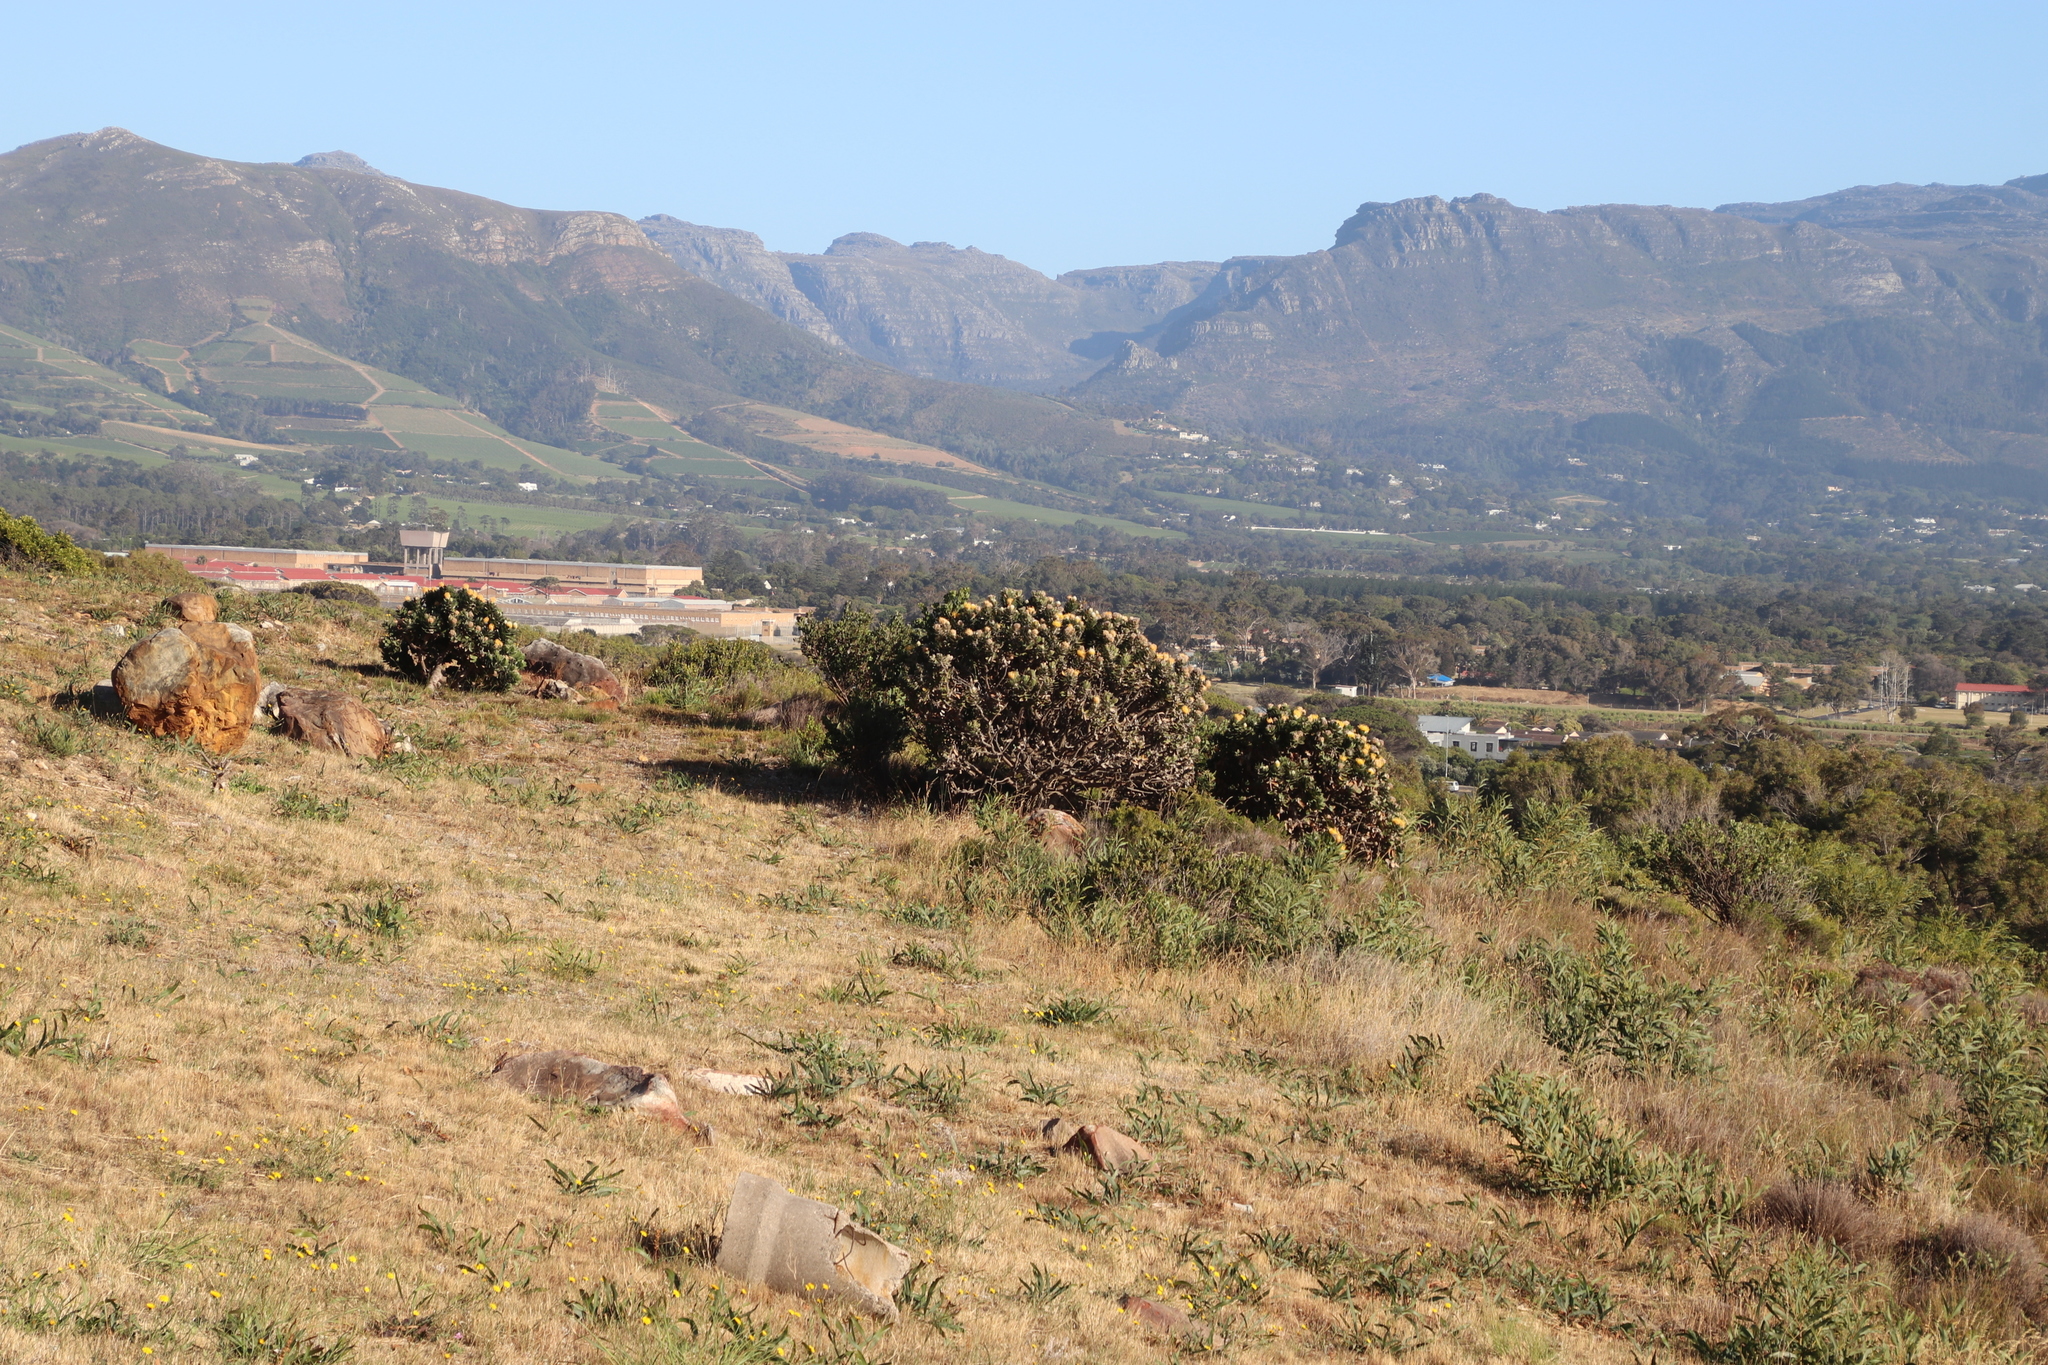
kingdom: Plantae
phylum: Tracheophyta
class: Magnoliopsida
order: Proteales
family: Proteaceae
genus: Leucospermum
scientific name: Leucospermum conocarpodendron
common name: Tree pincushion
